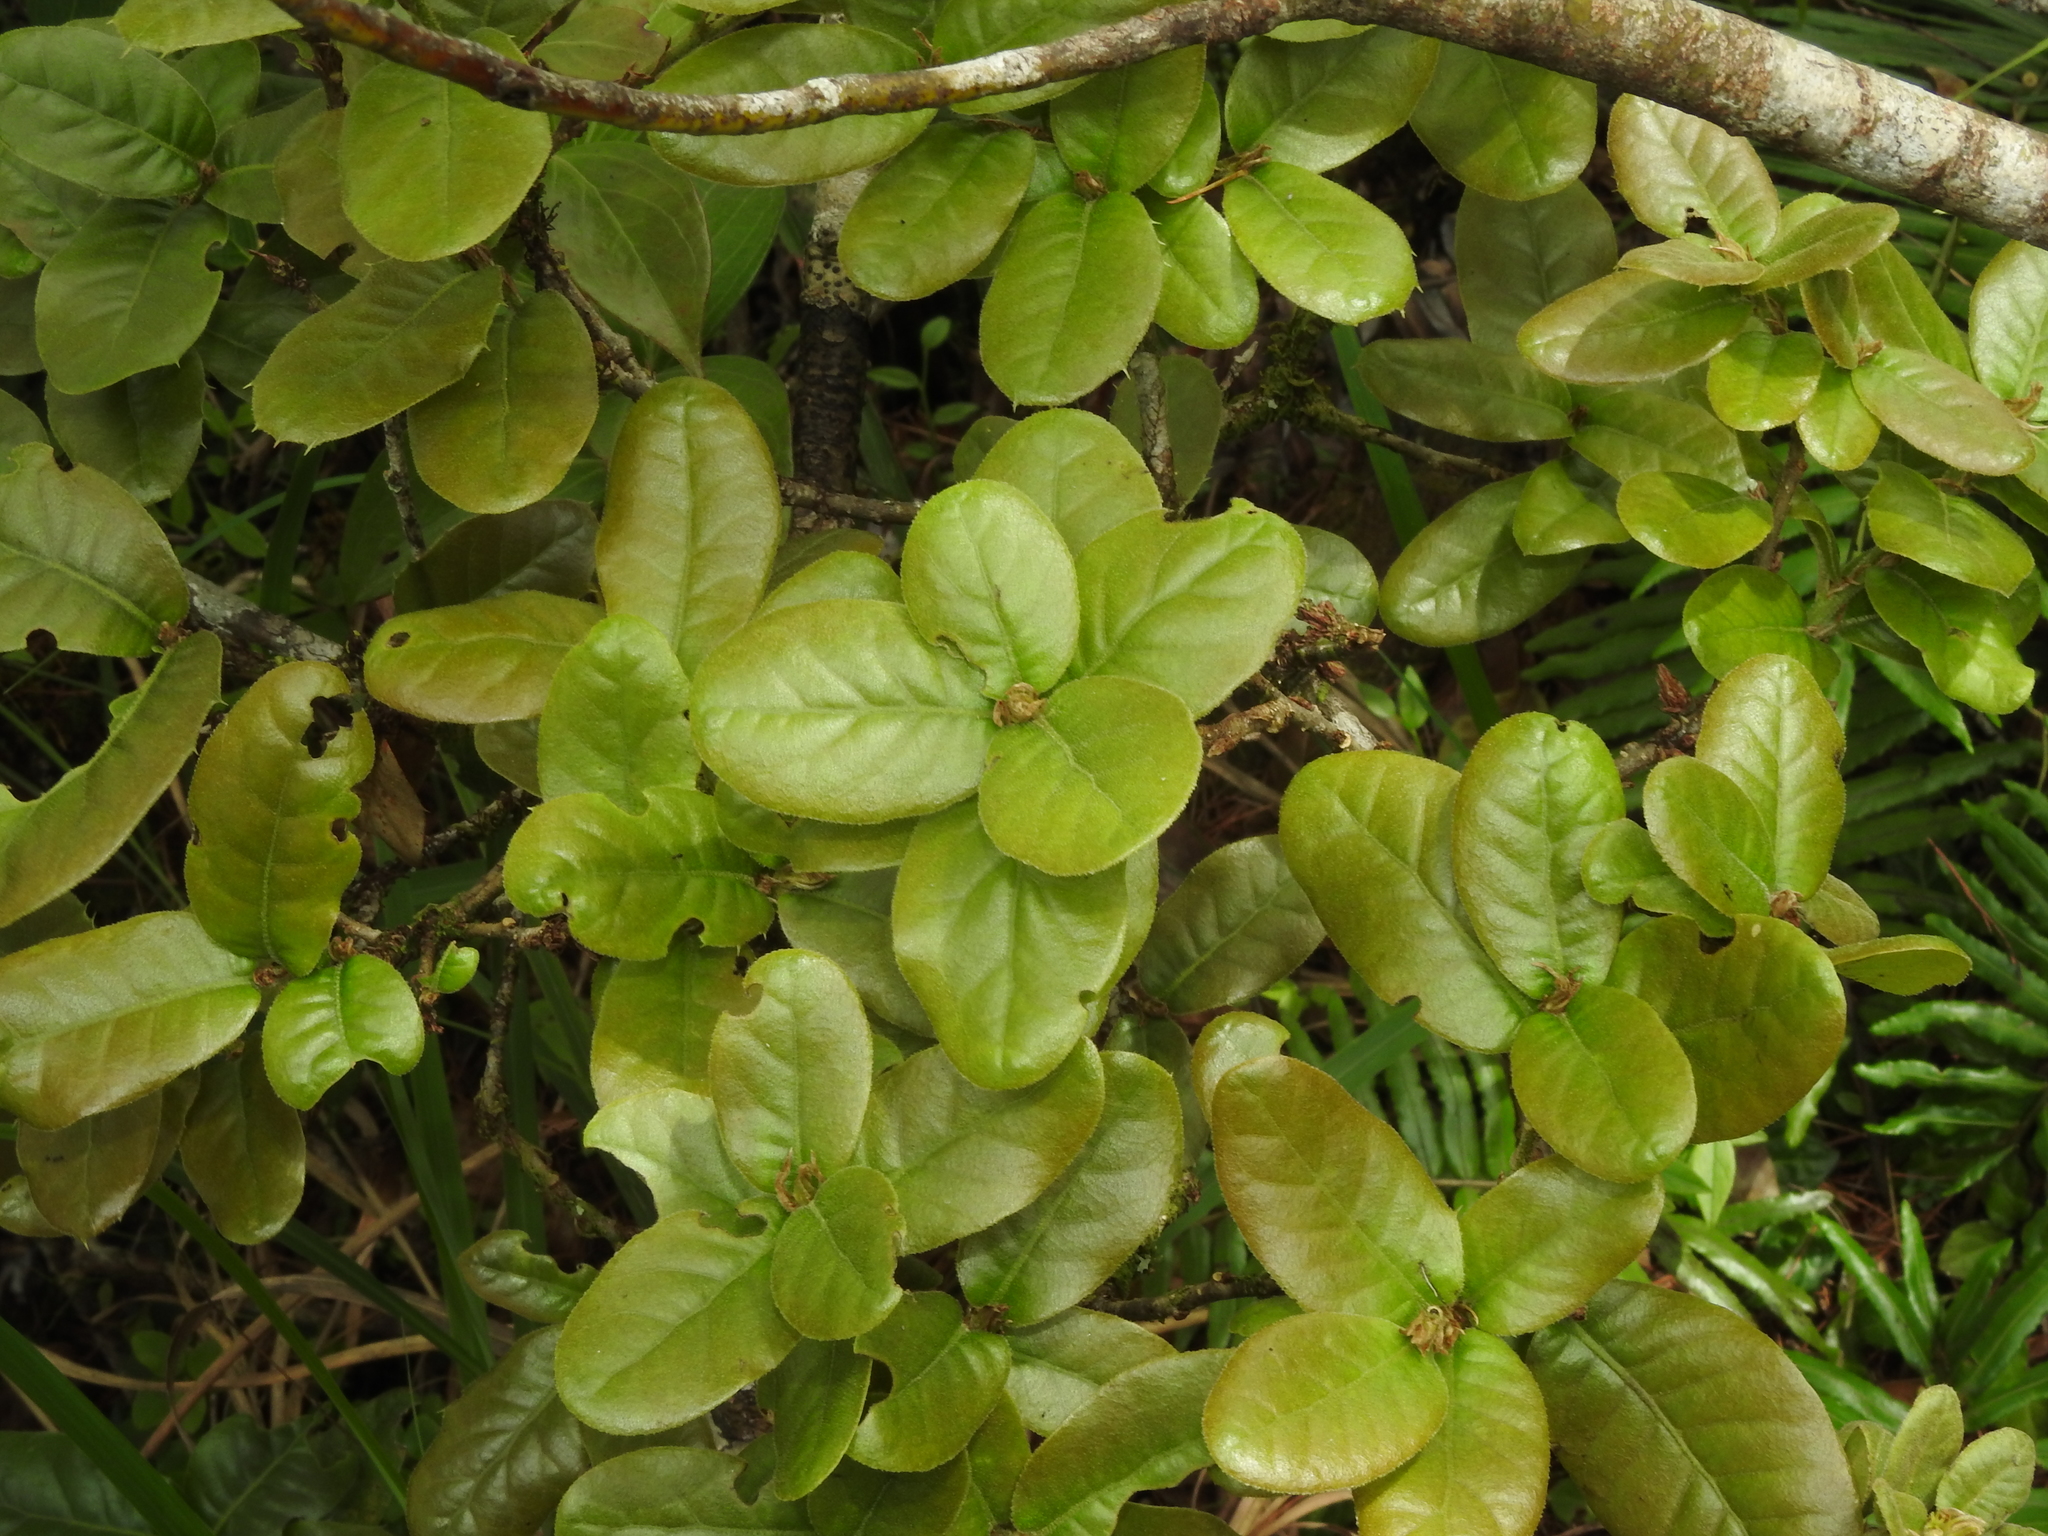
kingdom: Plantae
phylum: Tracheophyta
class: Magnoliopsida
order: Fagales
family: Fagaceae
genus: Quercus
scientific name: Quercus spinosa
